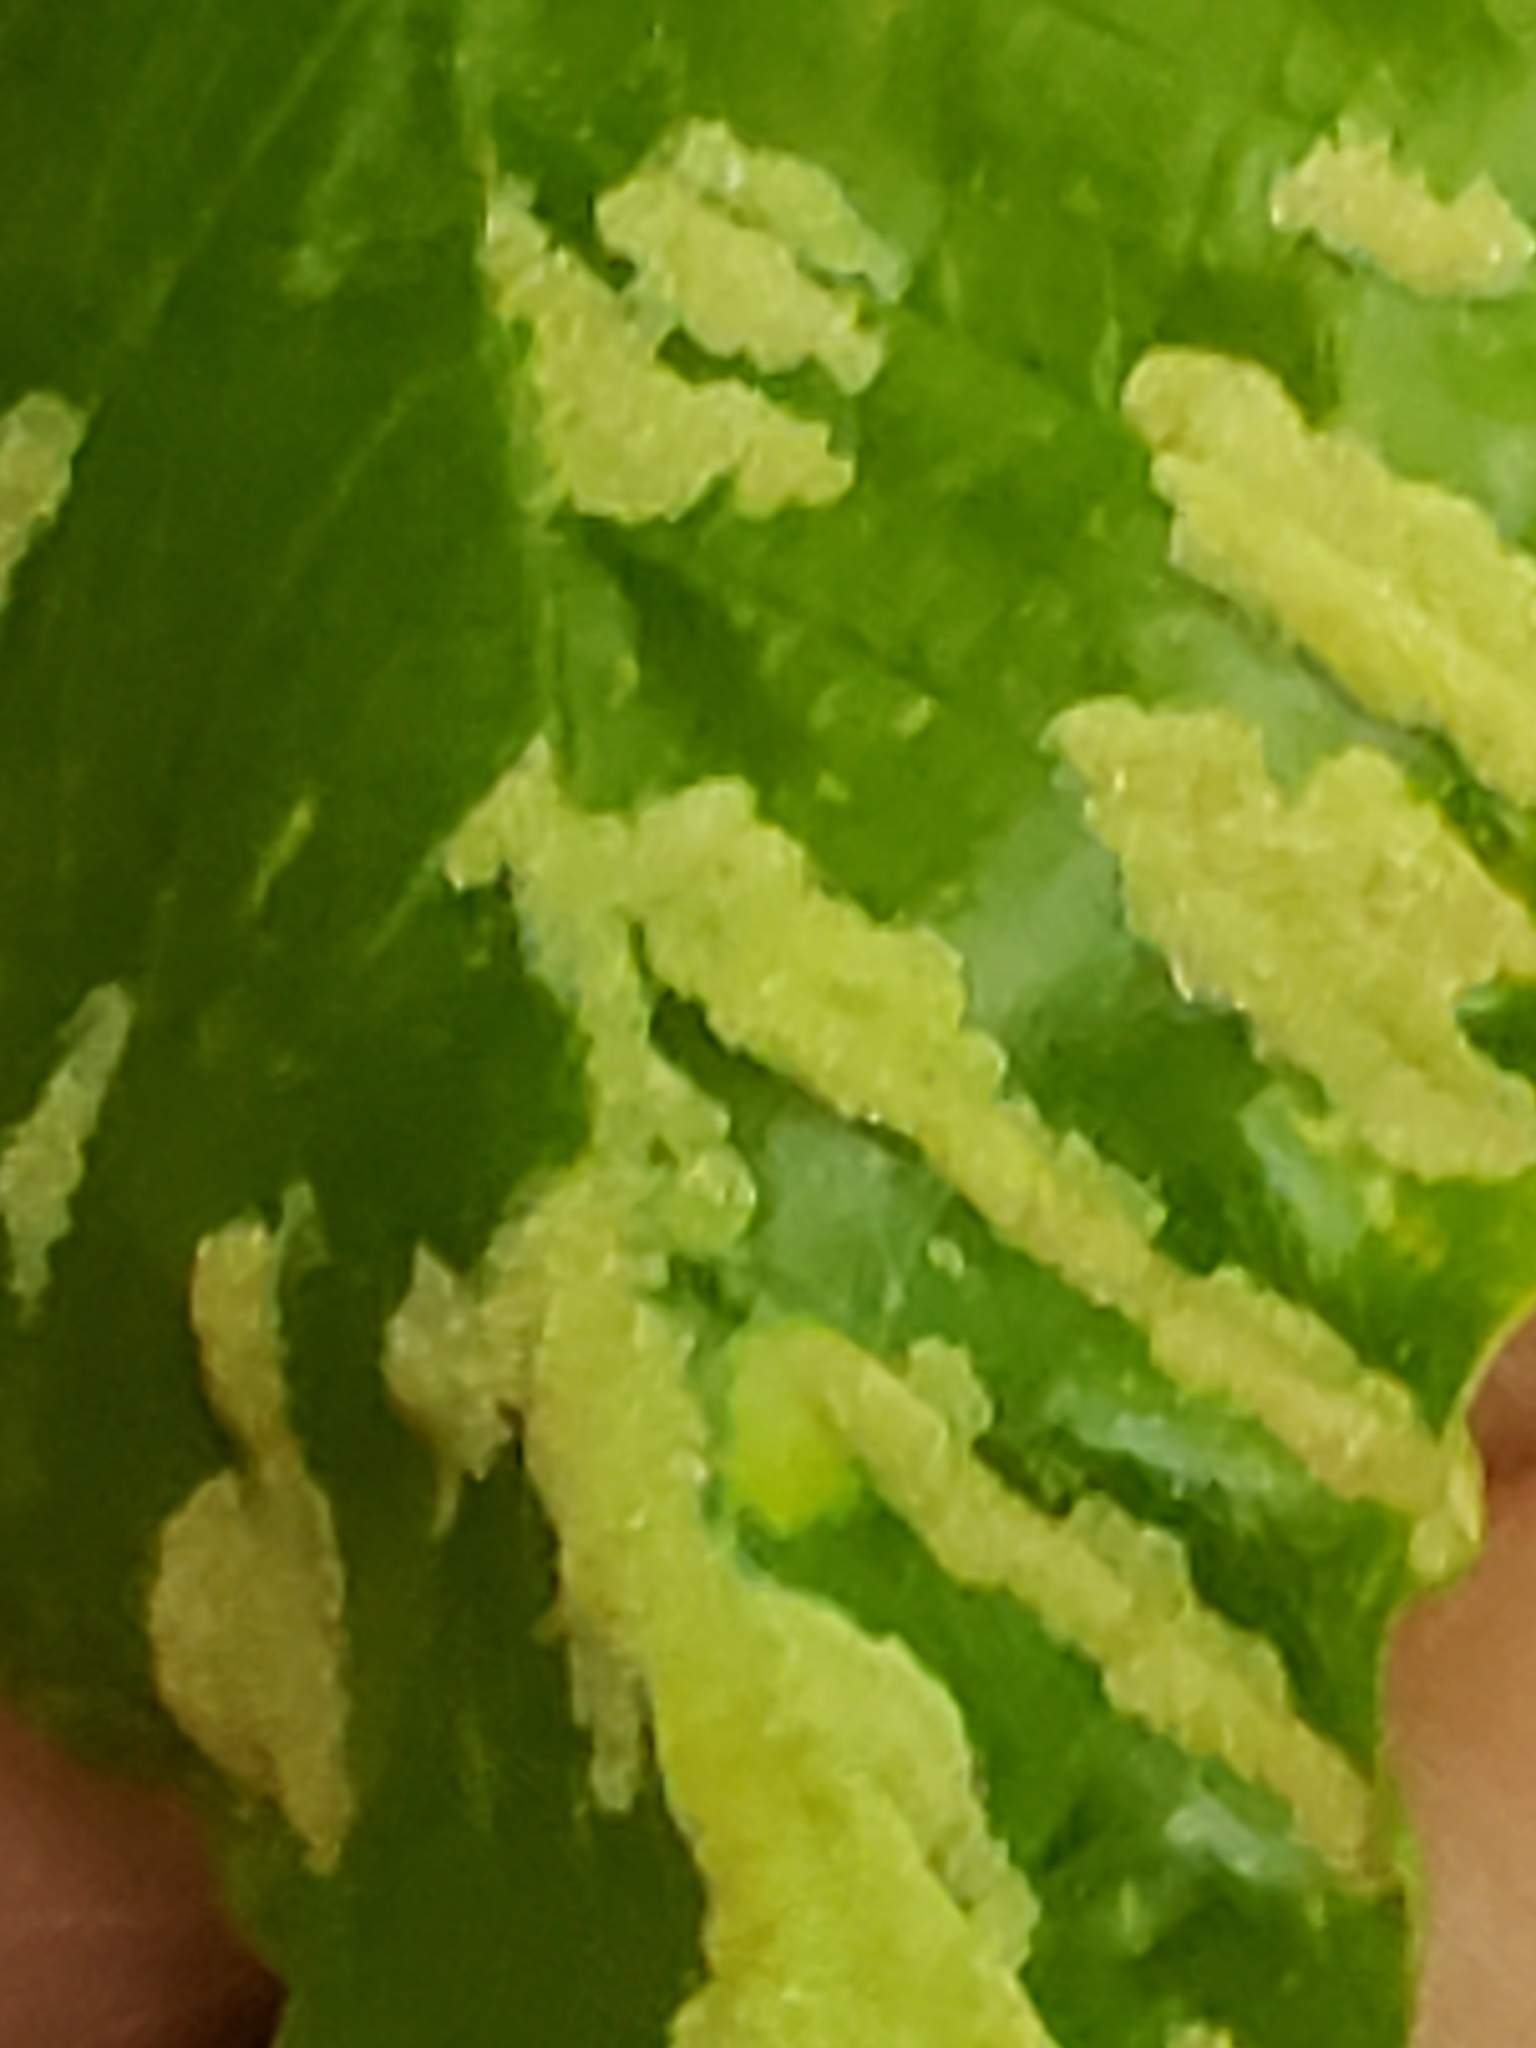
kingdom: Animalia
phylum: Arthropoda
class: Arachnida
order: Trombidiformes
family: Eriophyidae
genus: Acalitus
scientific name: Acalitus
